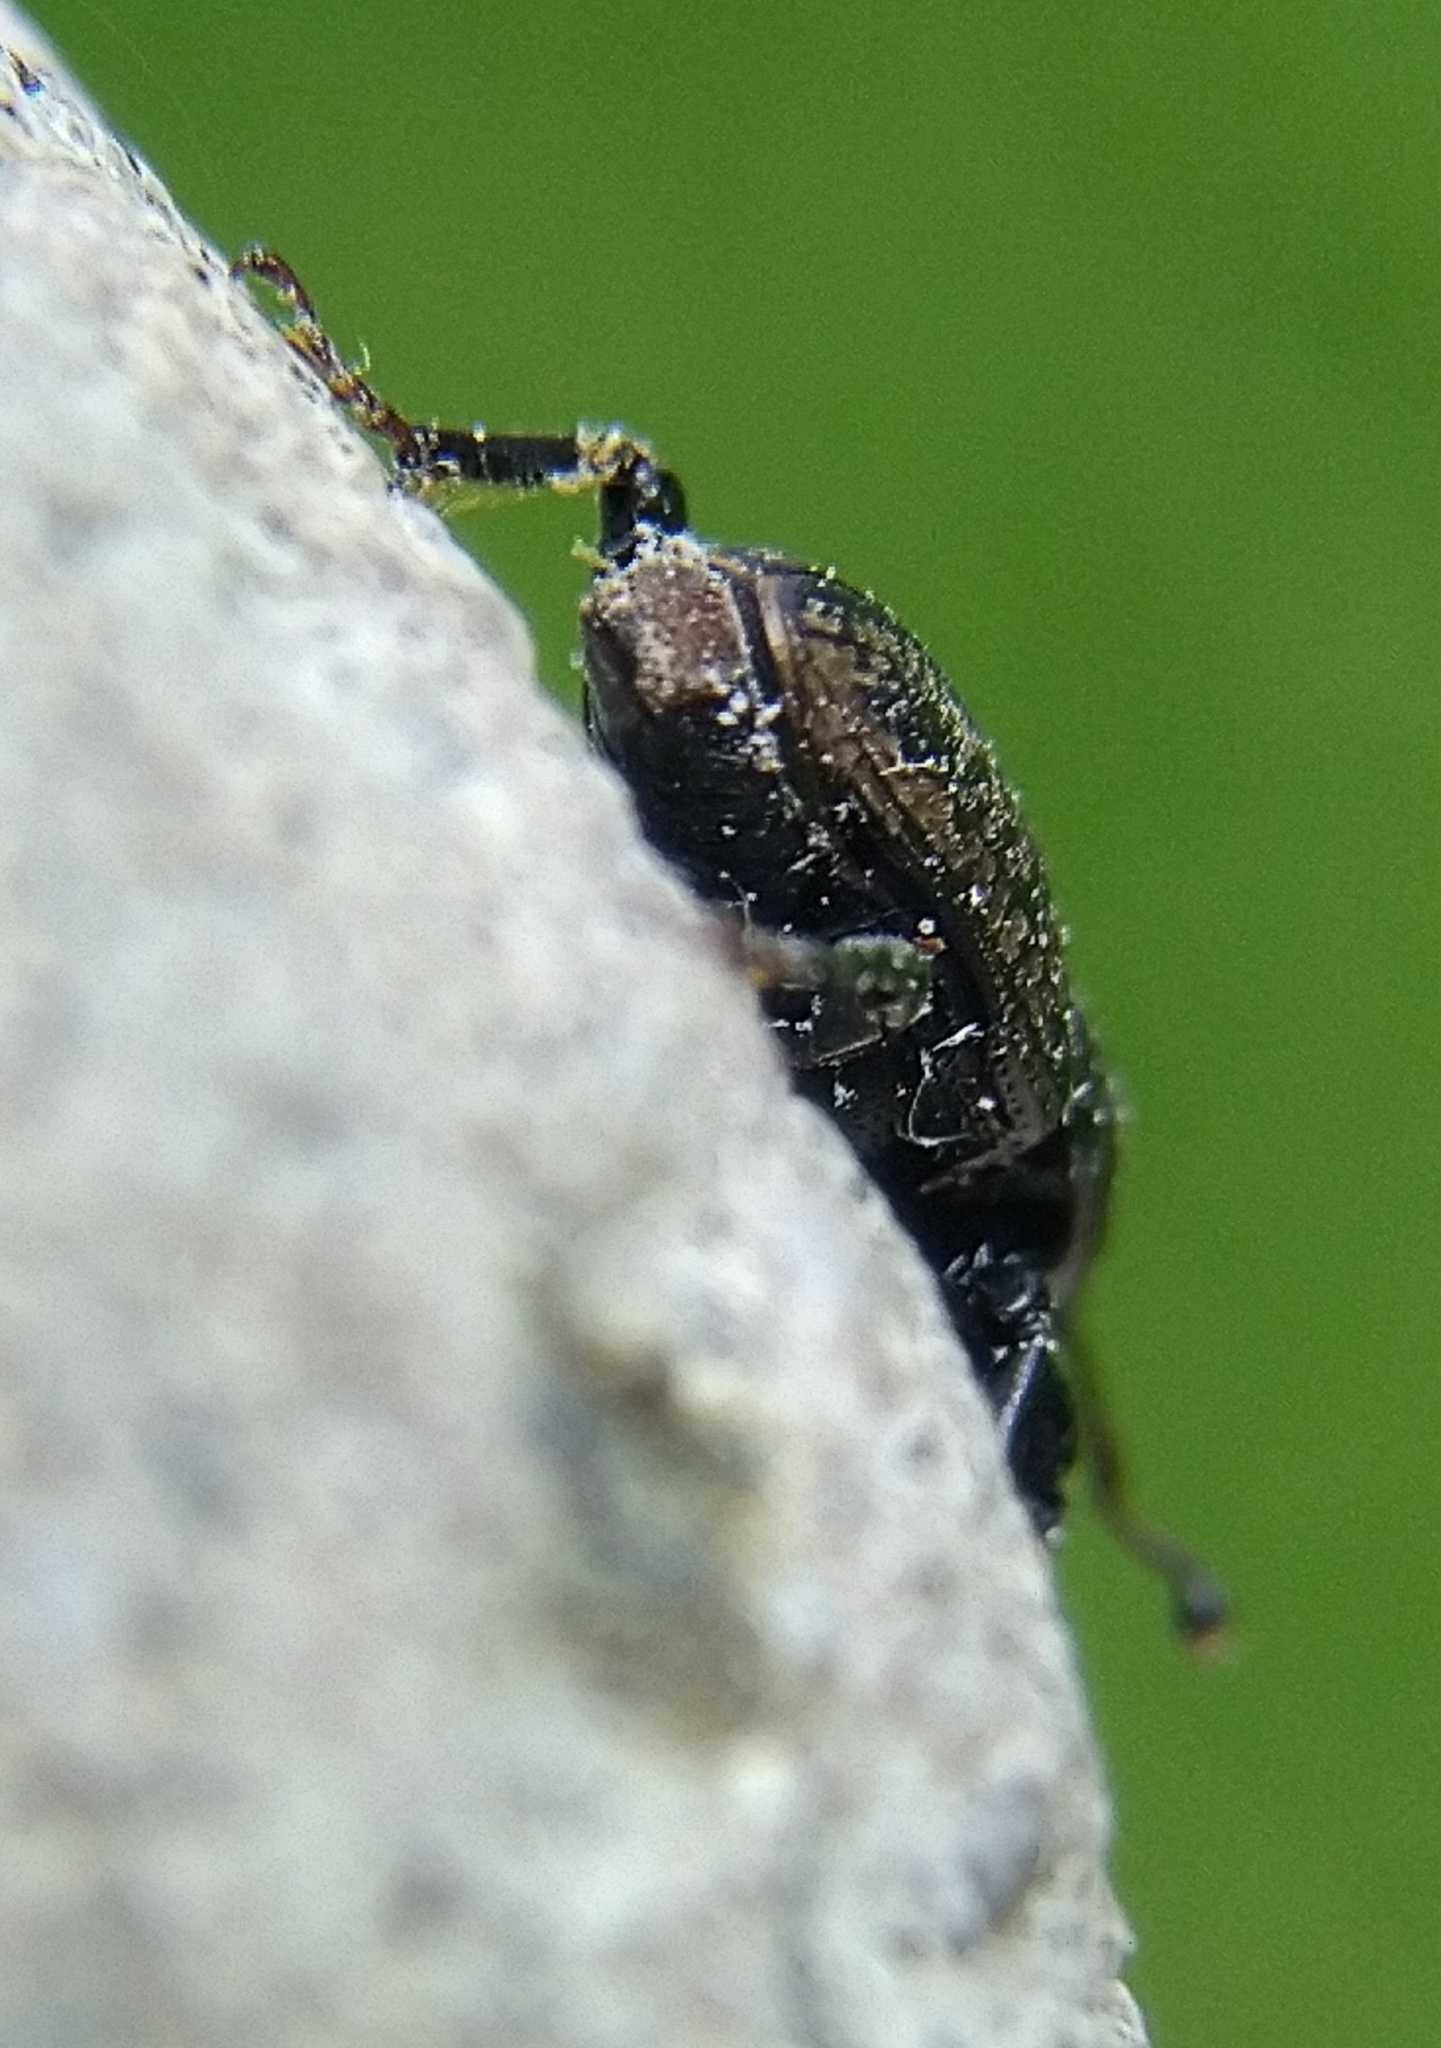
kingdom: Animalia
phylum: Arthropoda
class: Insecta
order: Coleoptera
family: Dryophthoridae
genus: Sphenophorus
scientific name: Sphenophorus cicatristriatus
